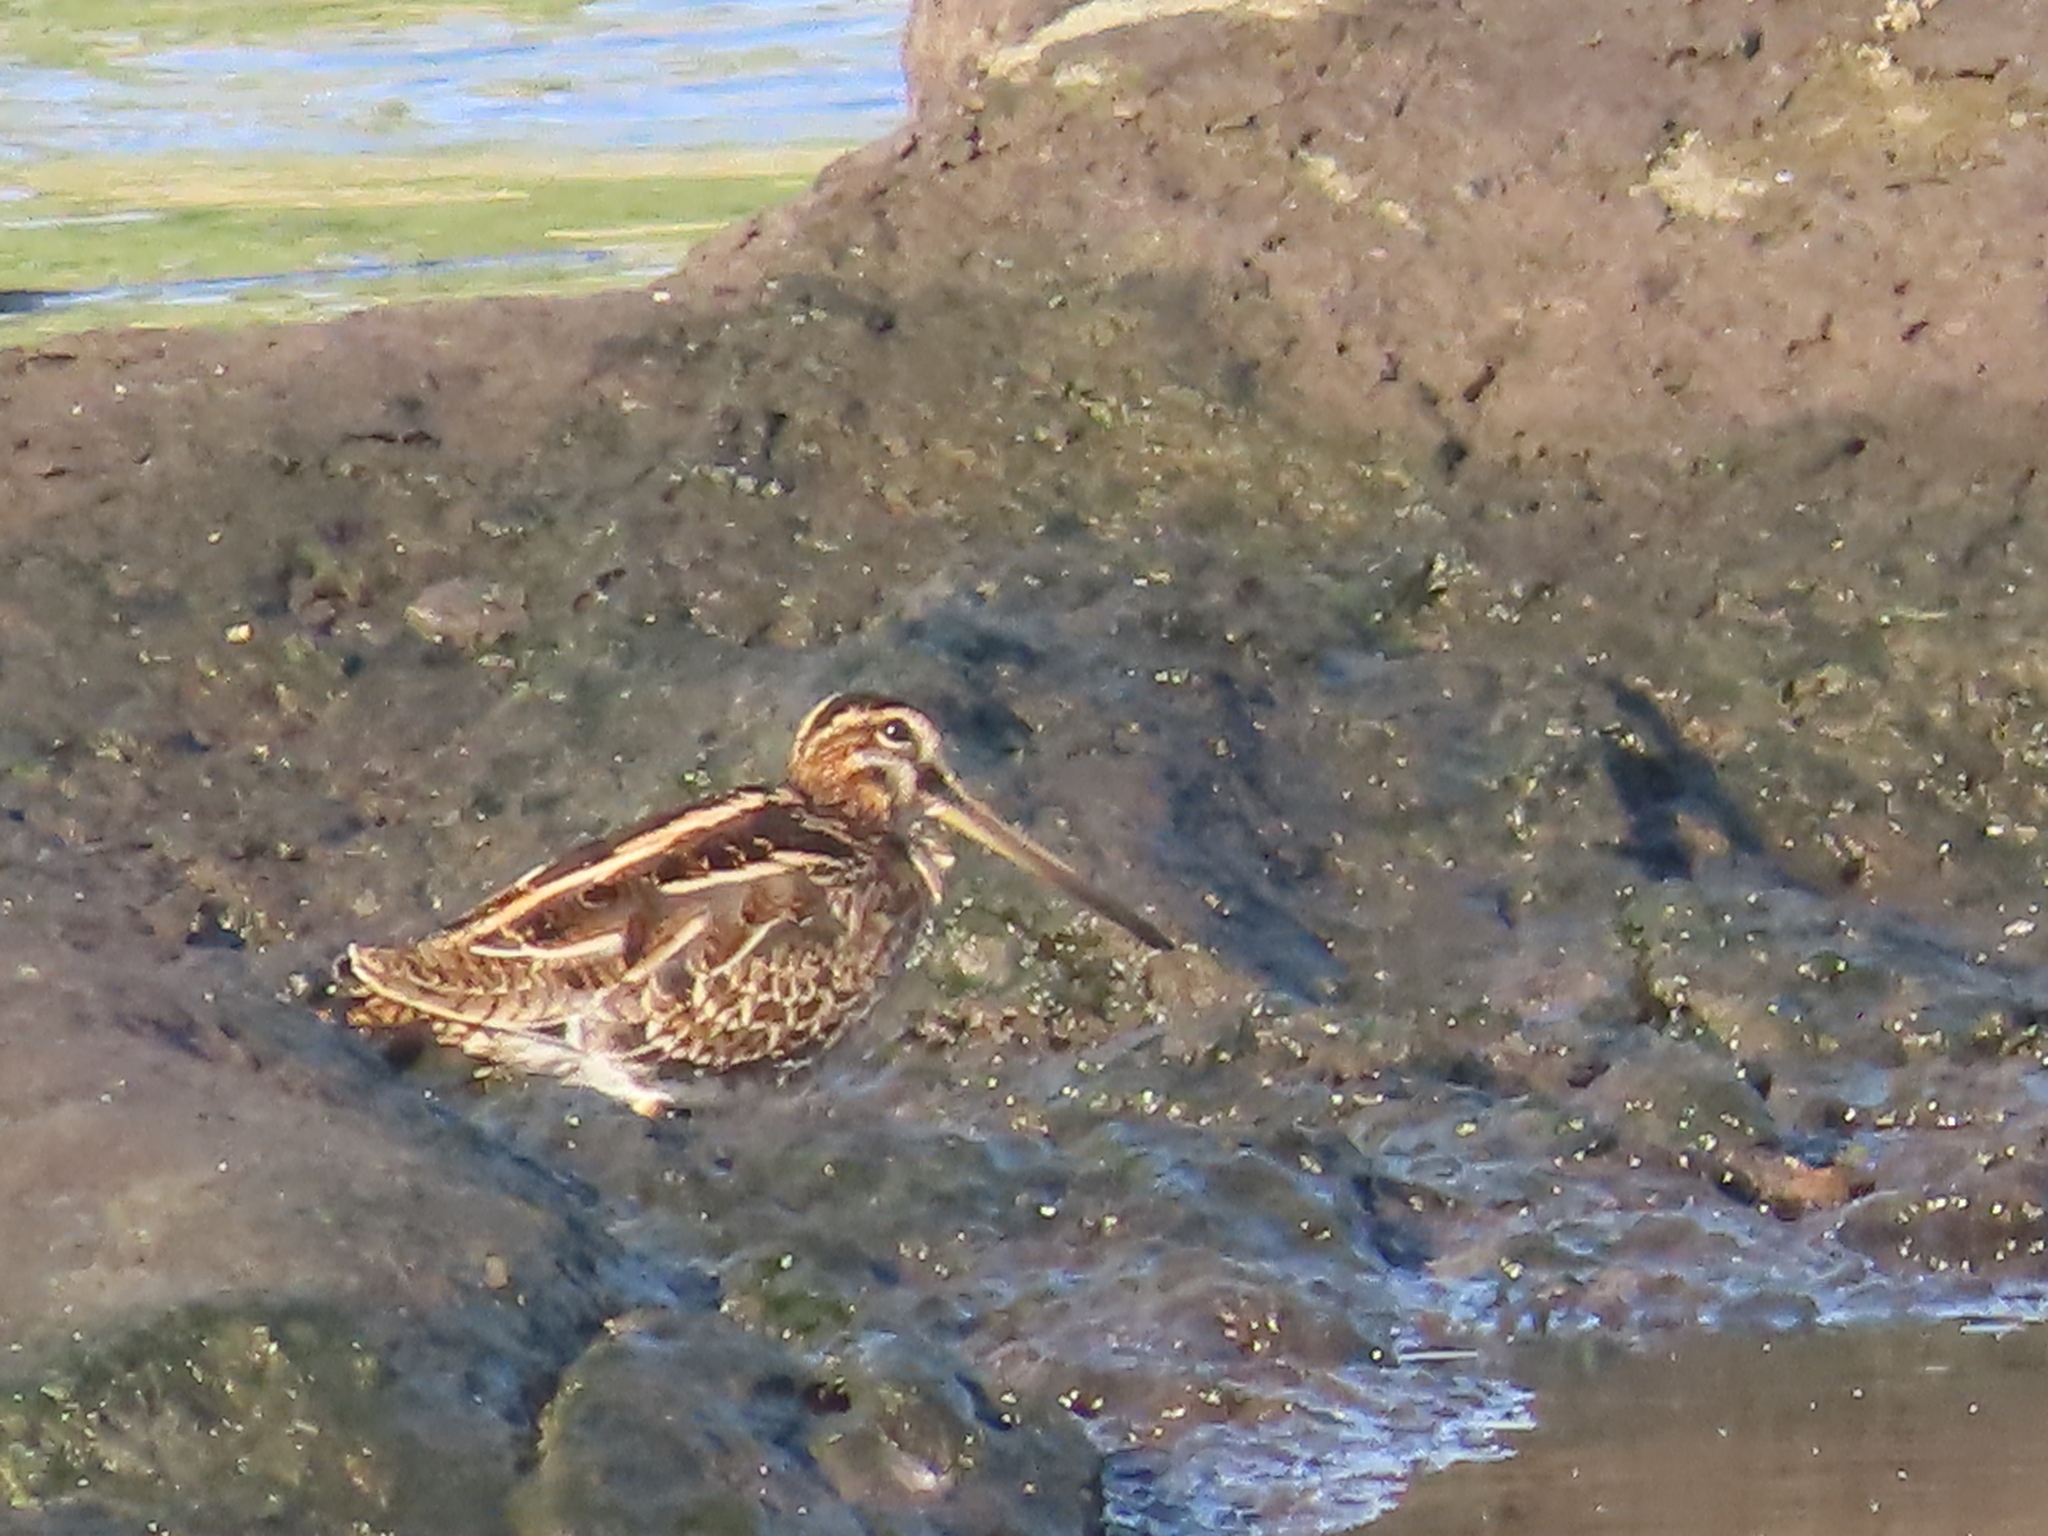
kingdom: Animalia
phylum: Chordata
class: Aves
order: Charadriiformes
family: Scolopacidae
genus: Gallinago
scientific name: Gallinago gallinago
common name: Common snipe
